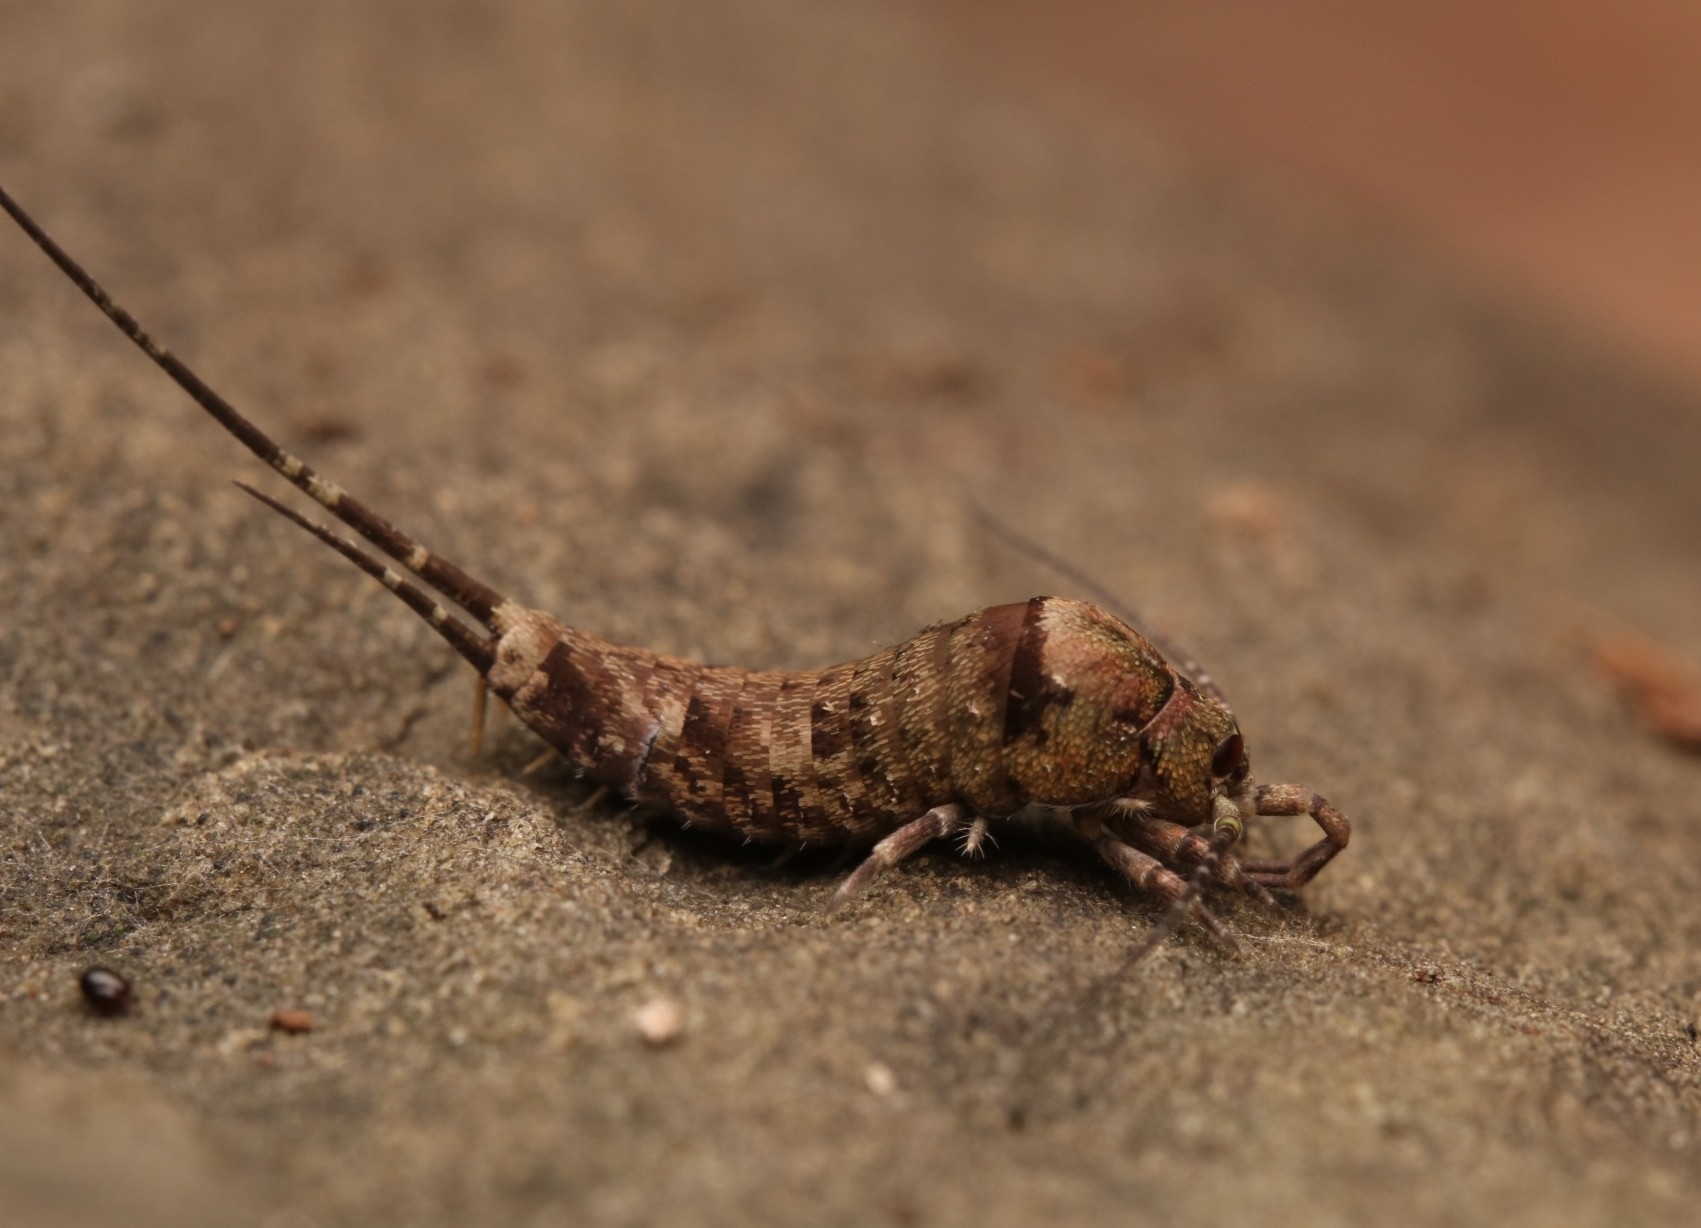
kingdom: Animalia
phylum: Arthropoda
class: Insecta
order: Archaeognatha
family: Machilidae
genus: Trigoniophthalmus
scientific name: Trigoniophthalmus alternatus
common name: Jumping bristletail
